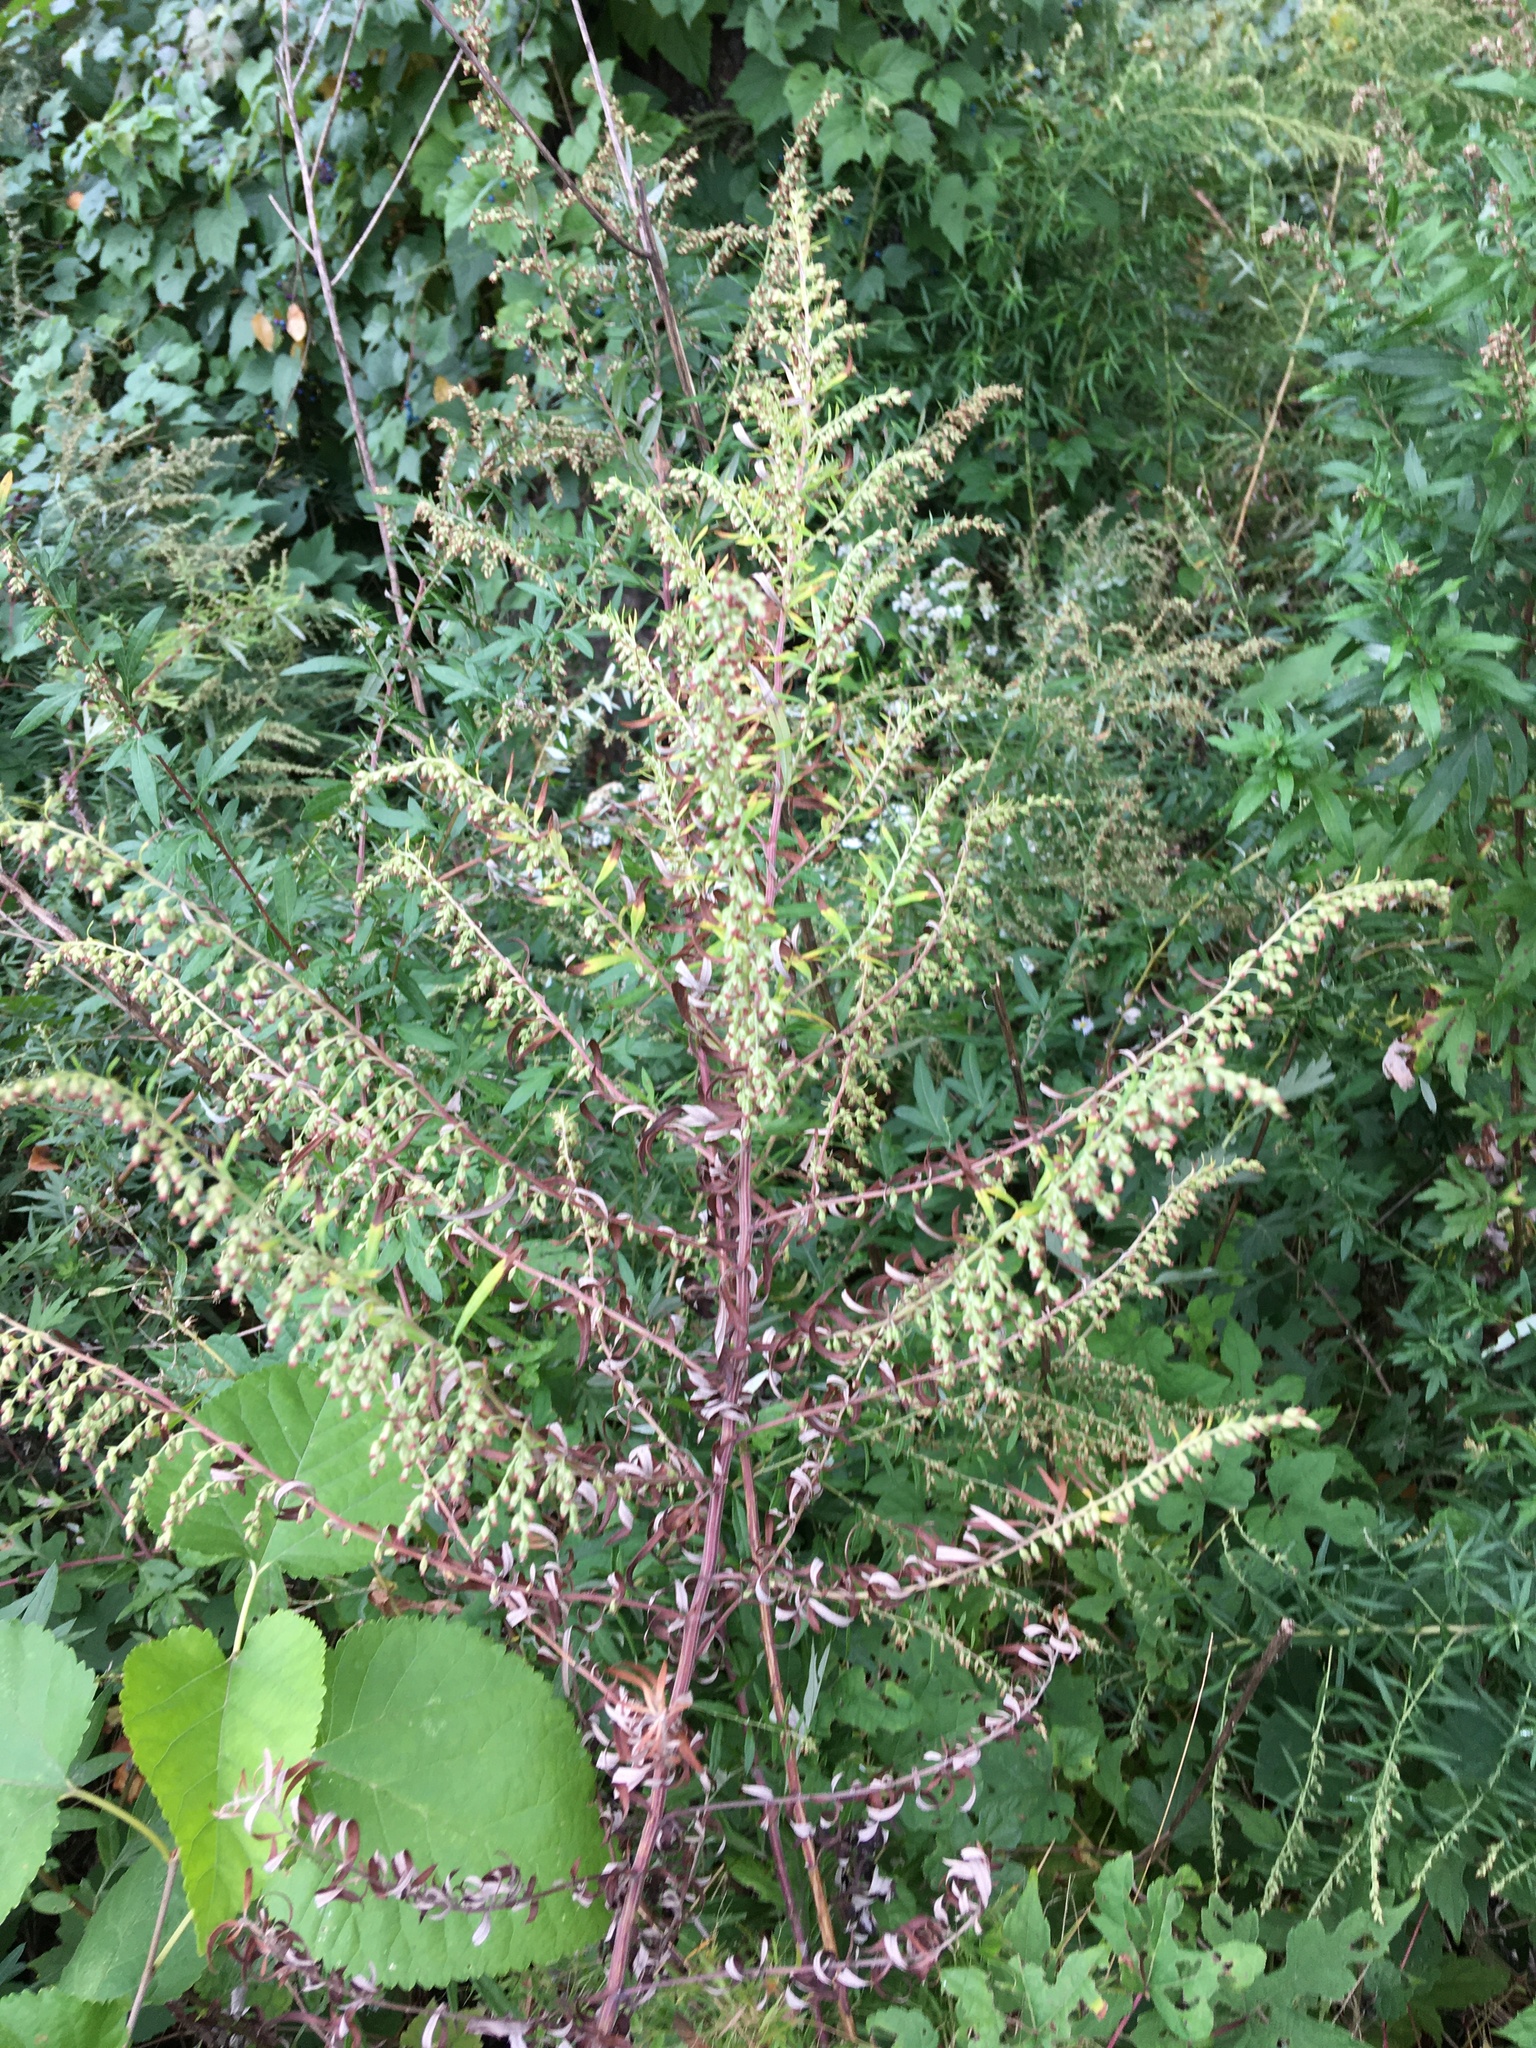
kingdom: Plantae
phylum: Tracheophyta
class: Magnoliopsida
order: Asterales
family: Asteraceae
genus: Artemisia
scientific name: Artemisia vulgaris
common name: Mugwort
